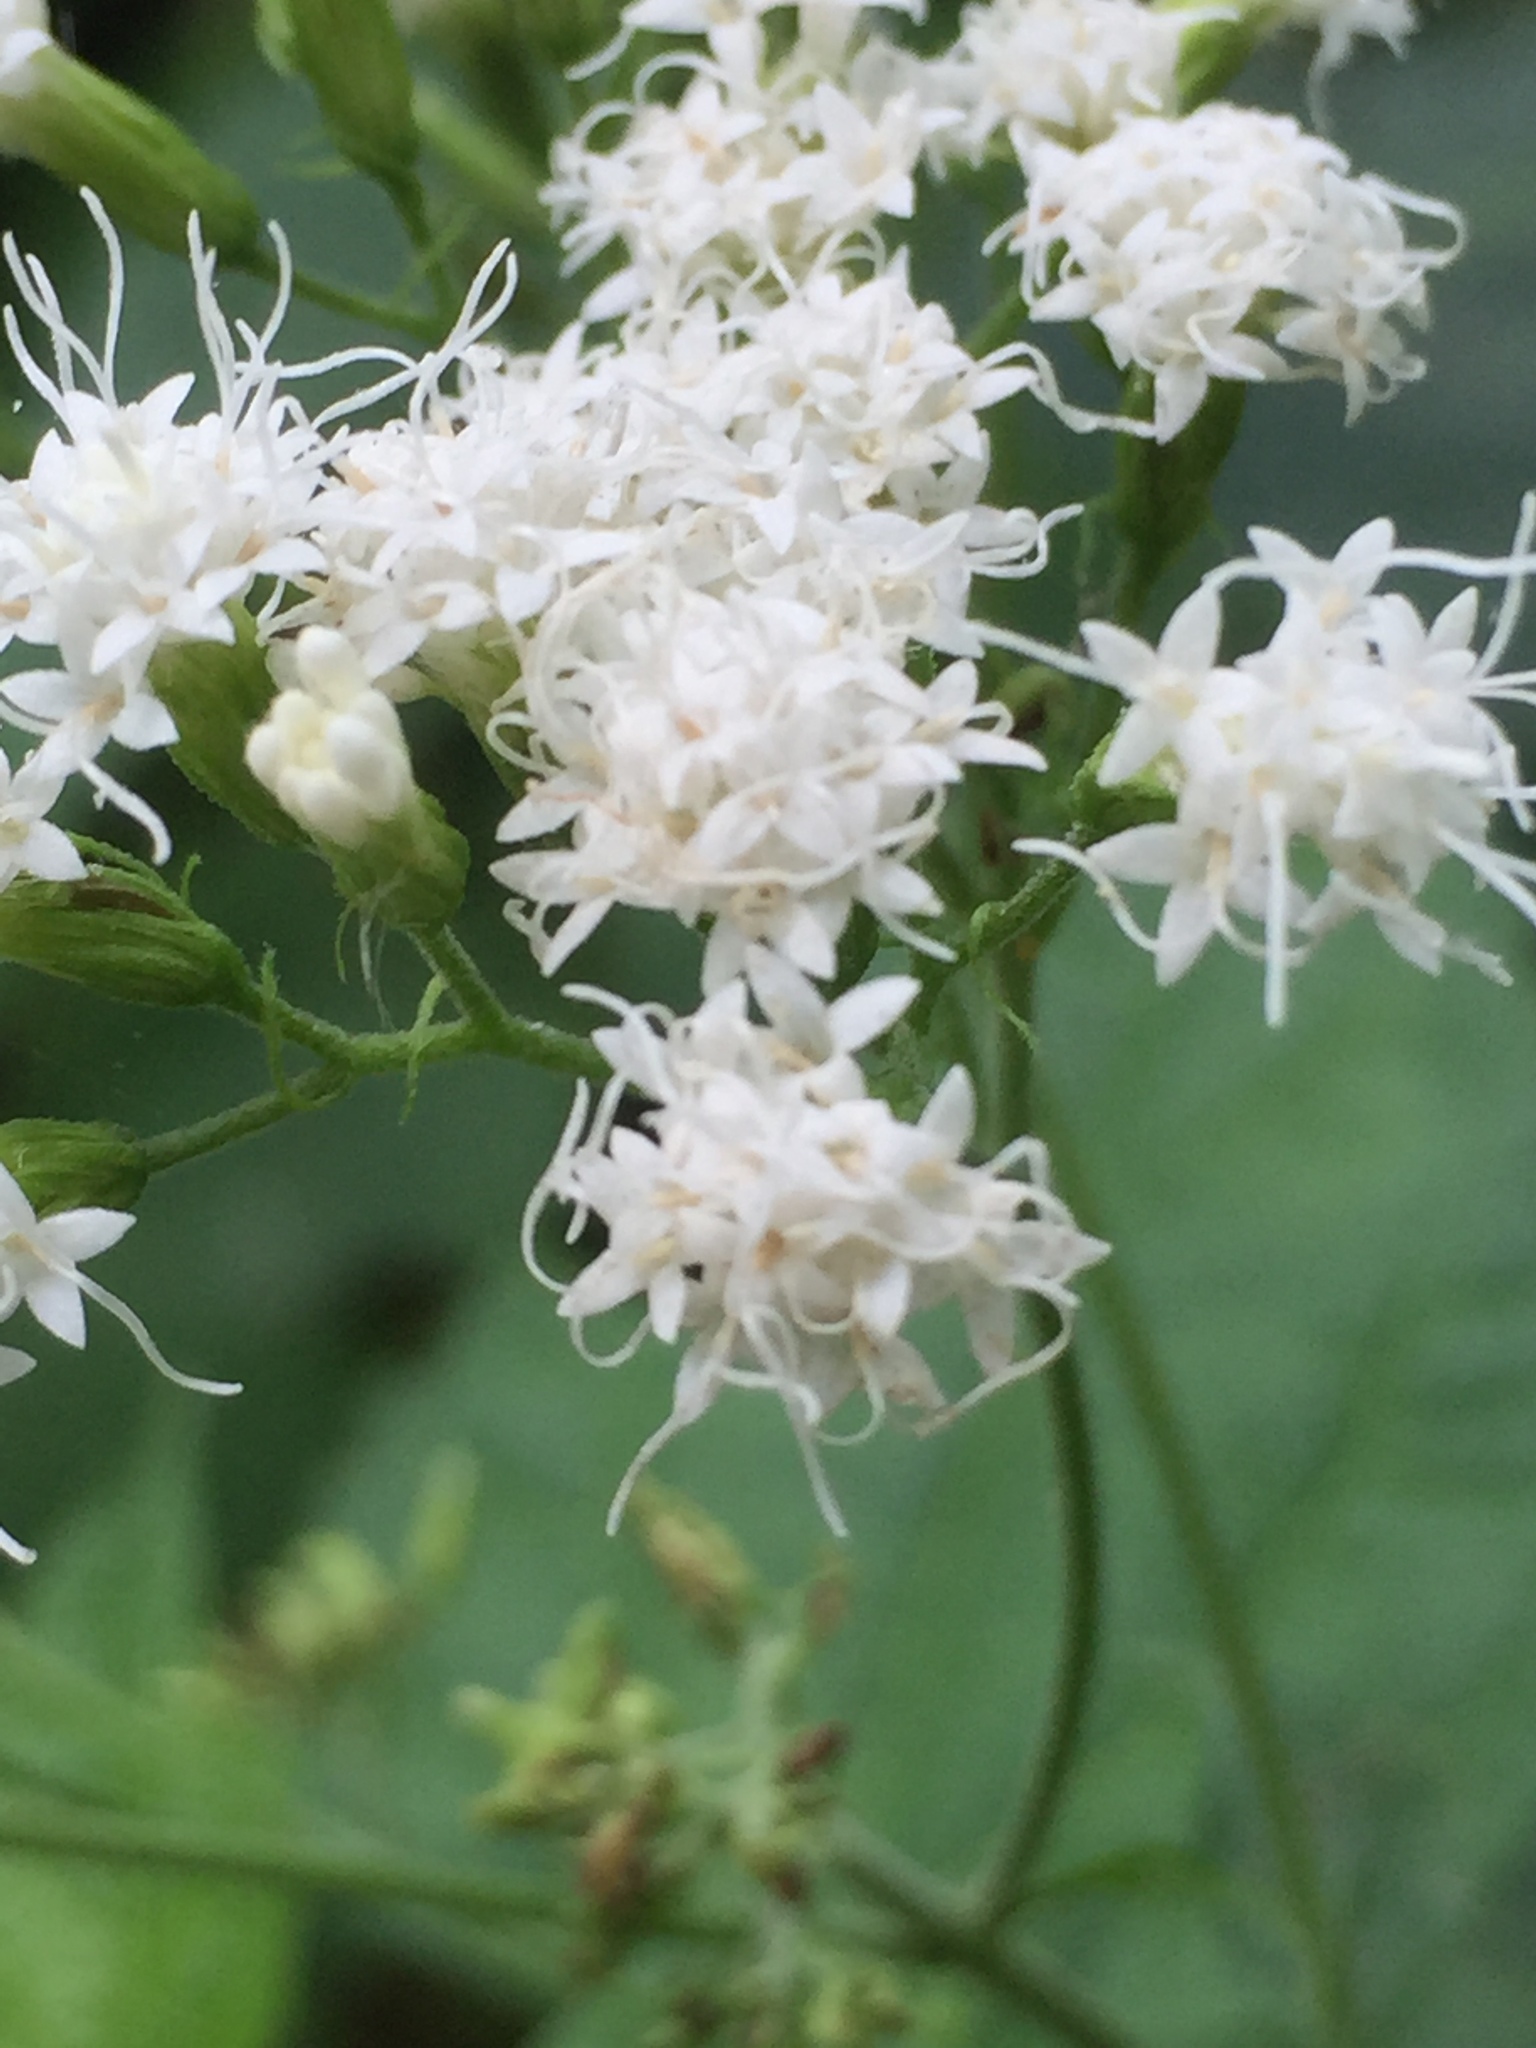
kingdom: Plantae
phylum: Tracheophyta
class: Magnoliopsida
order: Asterales
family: Asteraceae
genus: Ageratina
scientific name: Ageratina altissima
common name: White snakeroot
